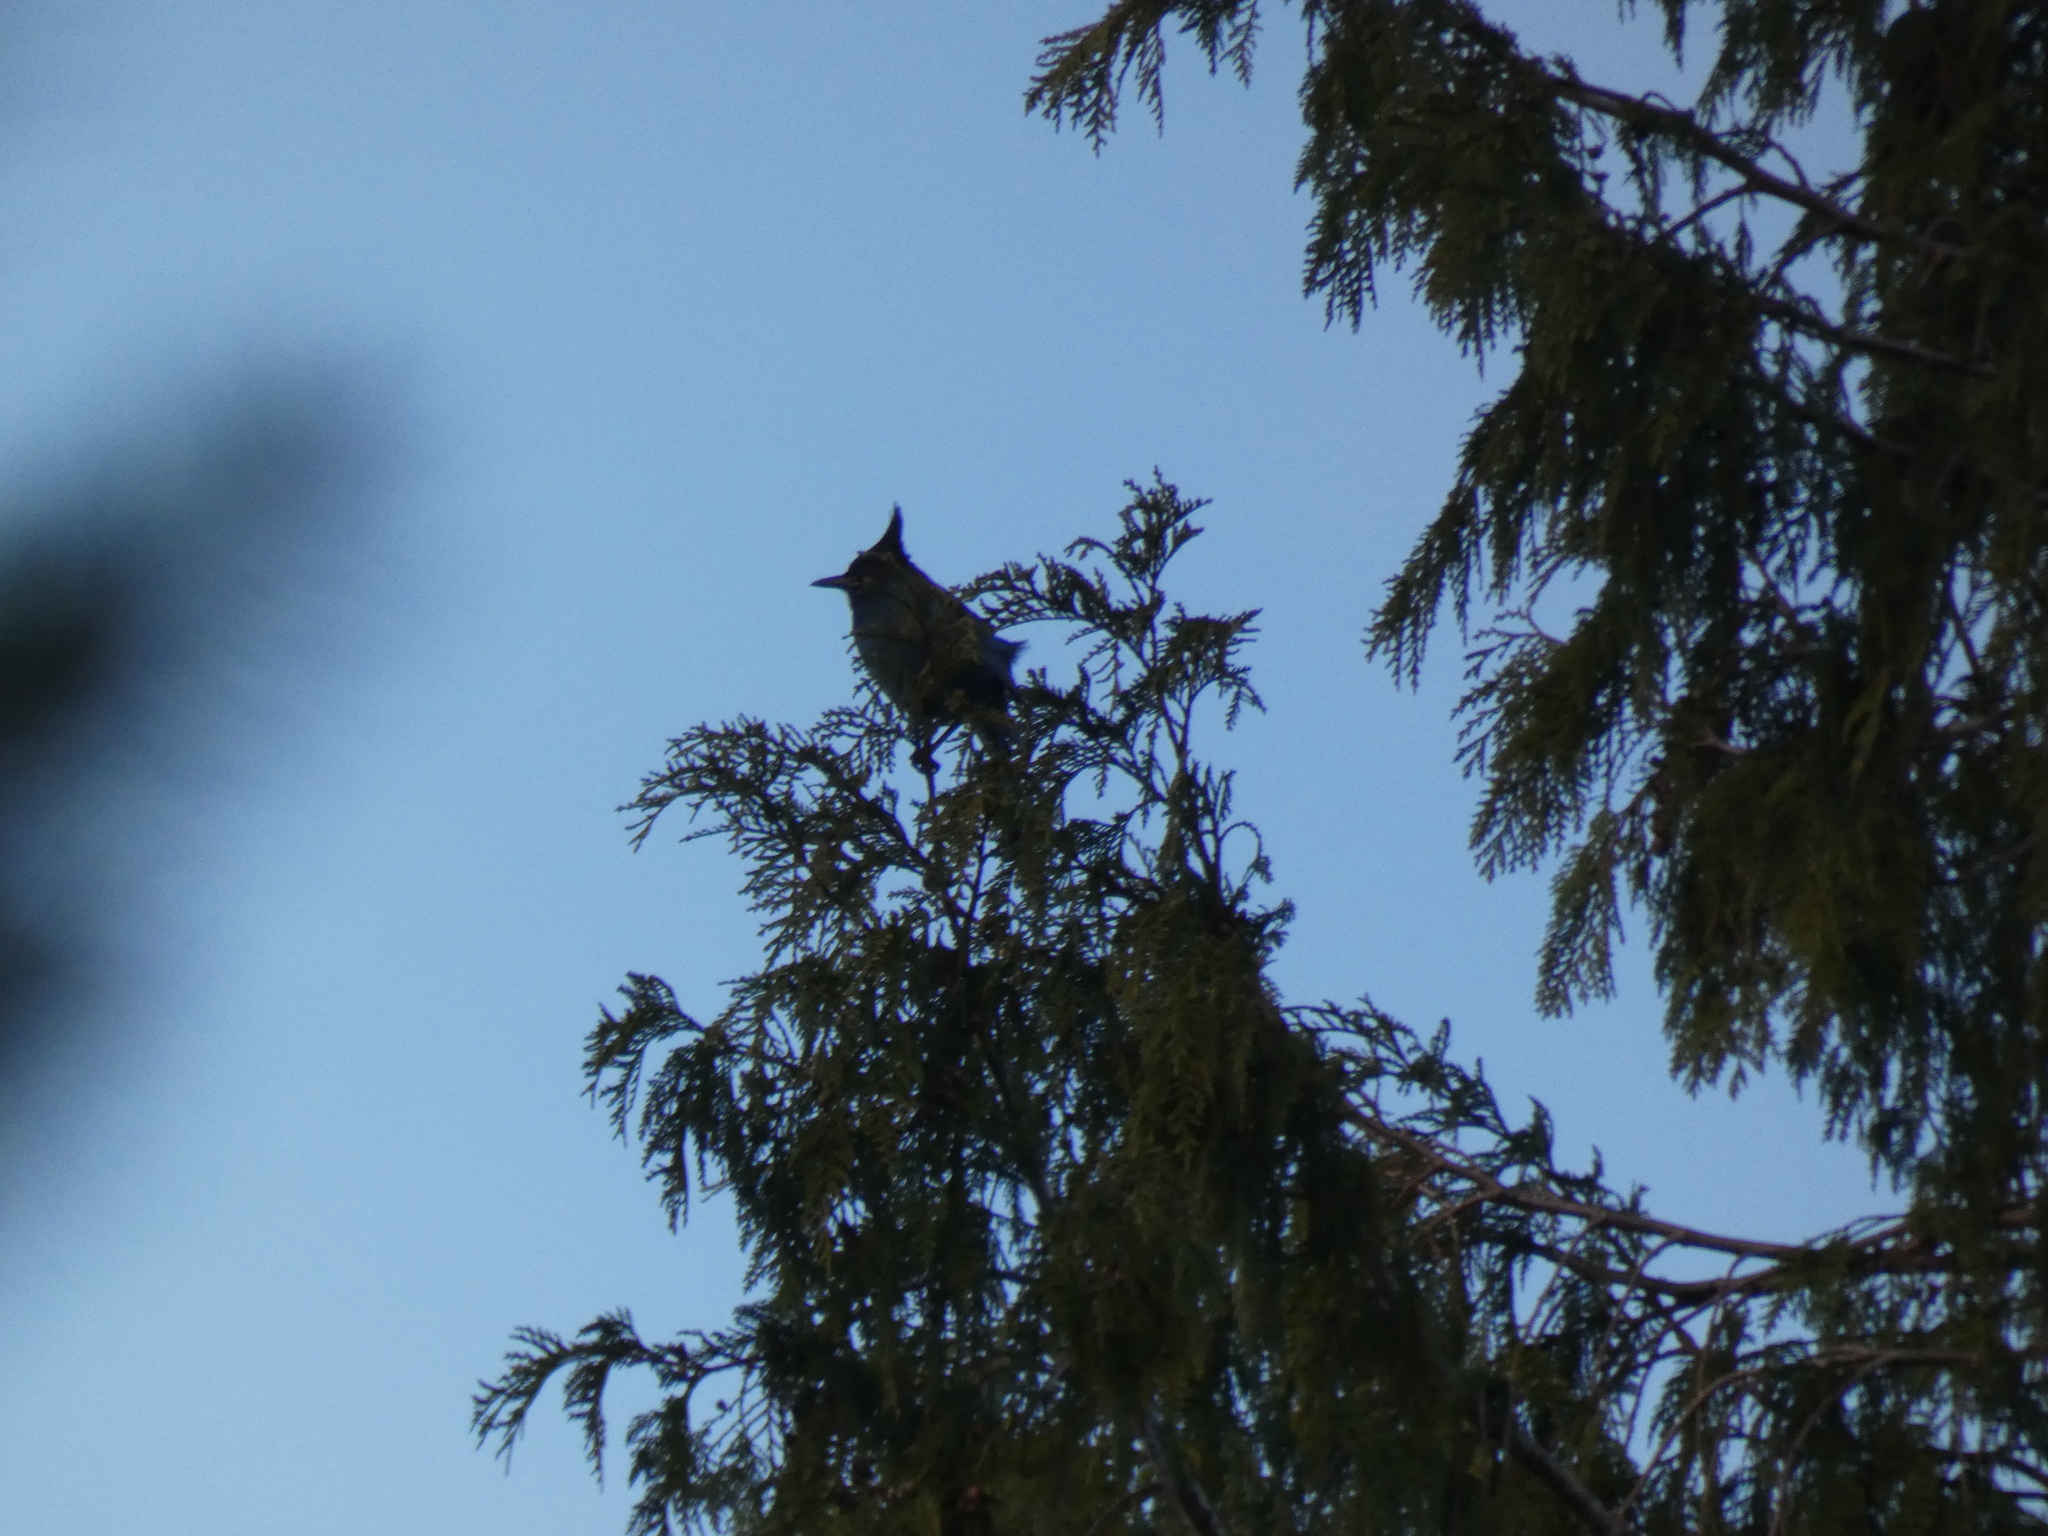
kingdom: Animalia
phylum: Chordata
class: Aves
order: Passeriformes
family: Corvidae
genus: Cyanocitta
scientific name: Cyanocitta stelleri
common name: Steller's jay
